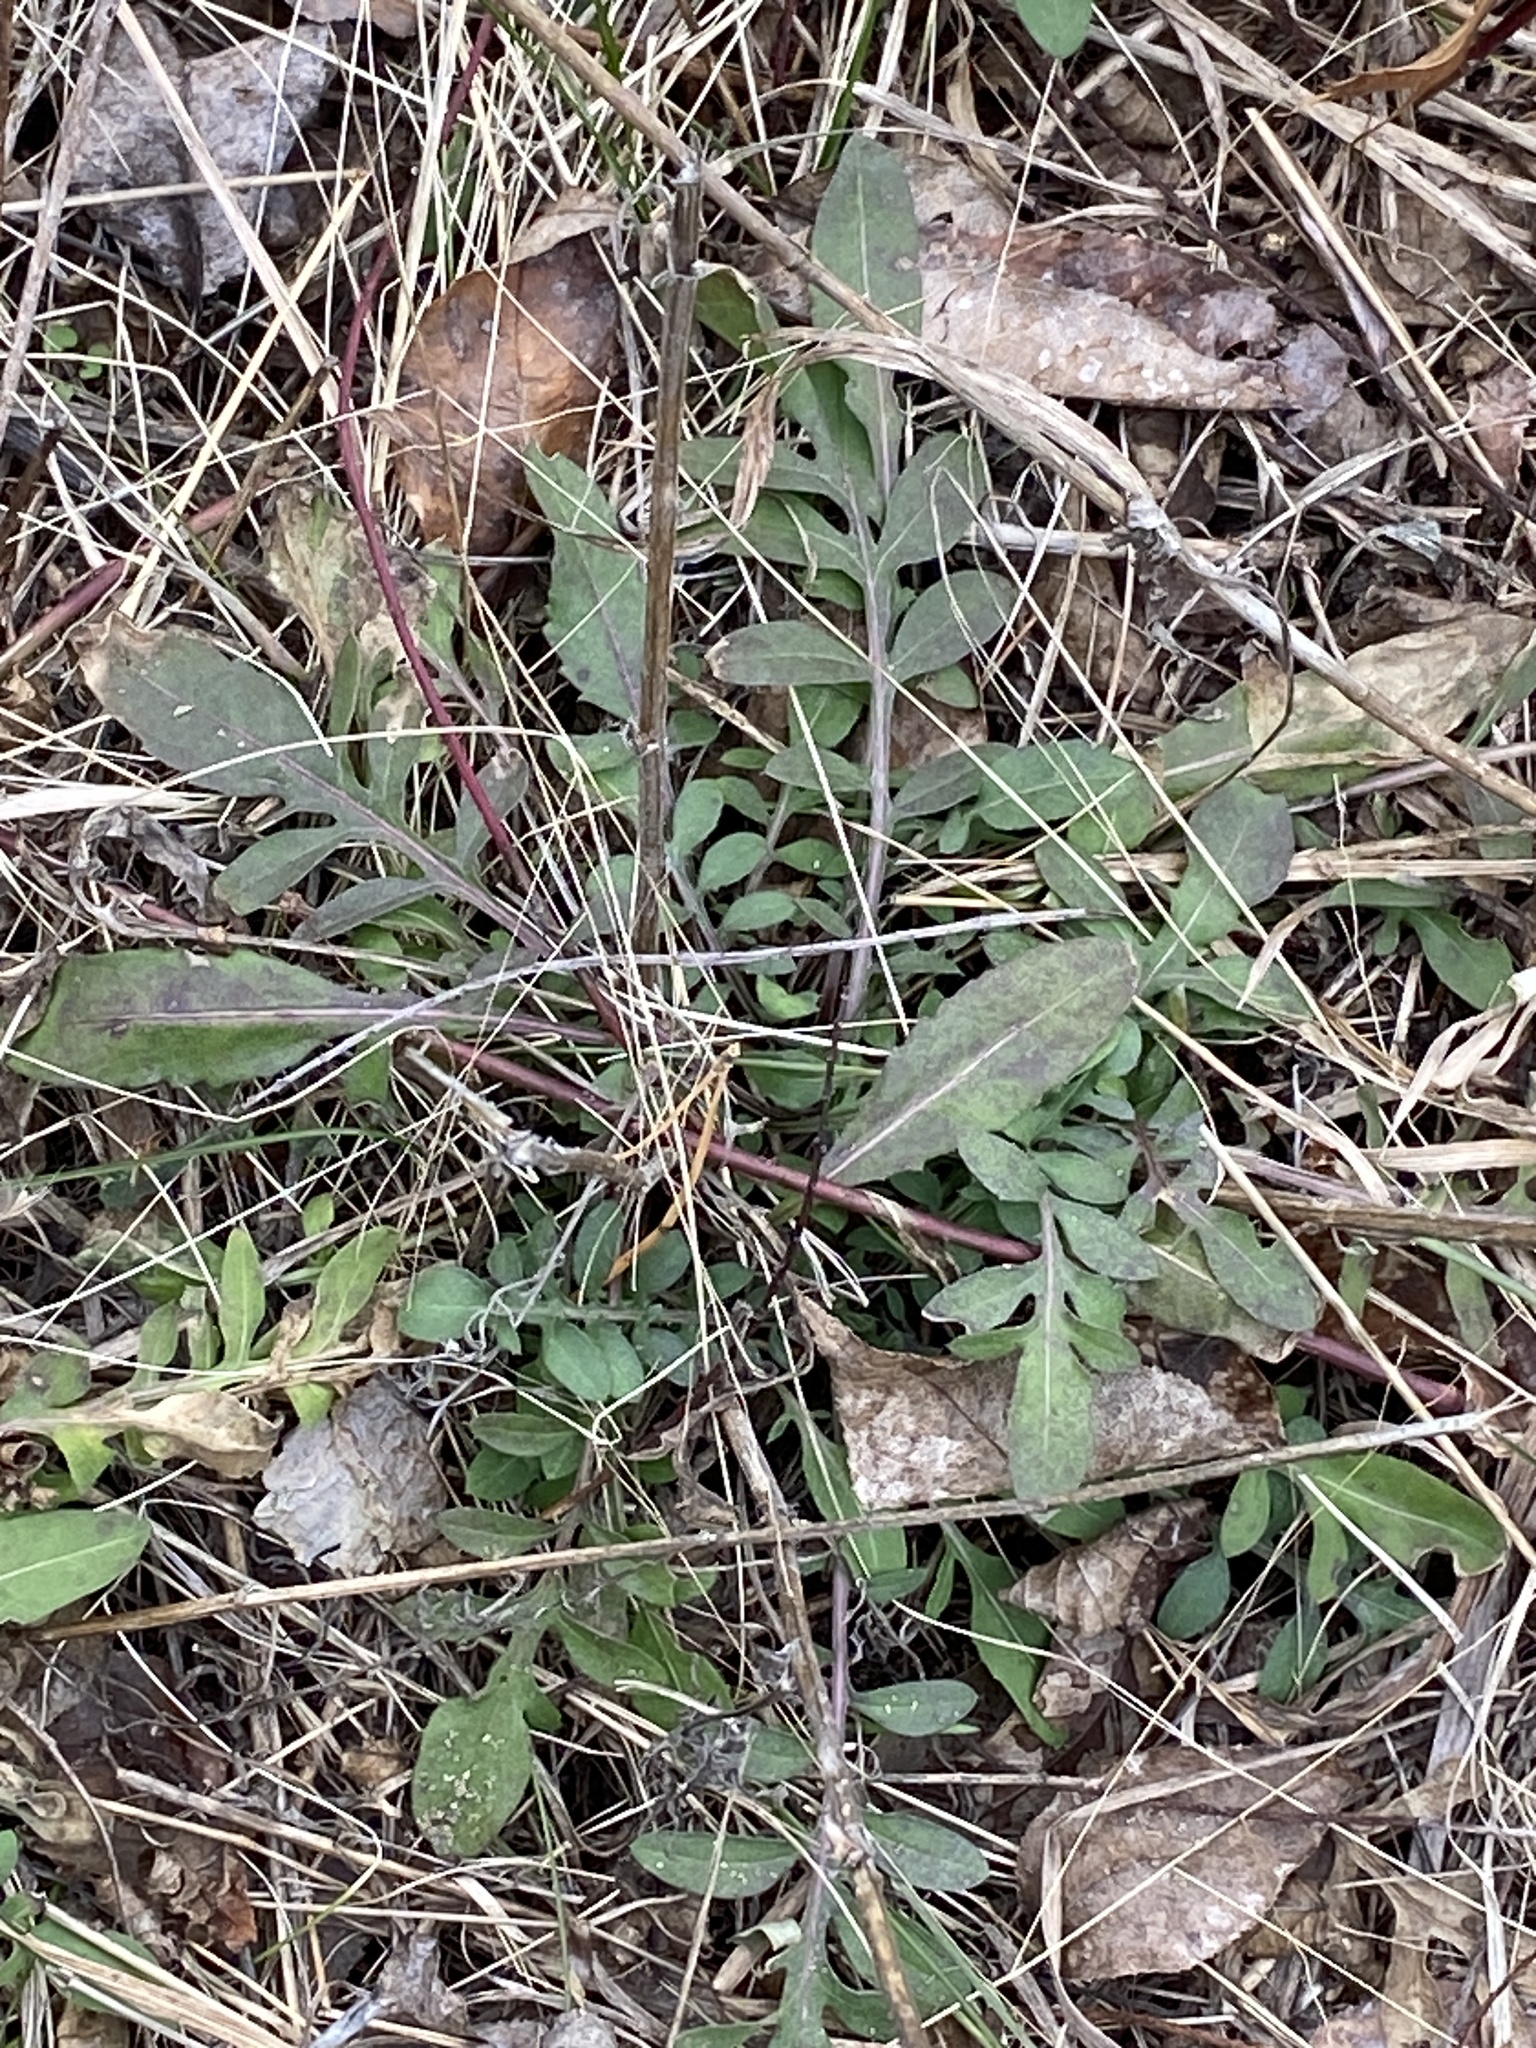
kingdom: Plantae
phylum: Tracheophyta
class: Magnoliopsida
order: Asterales
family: Asteraceae
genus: Centaurea
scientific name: Centaurea stoebe
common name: Spotted knapweed
